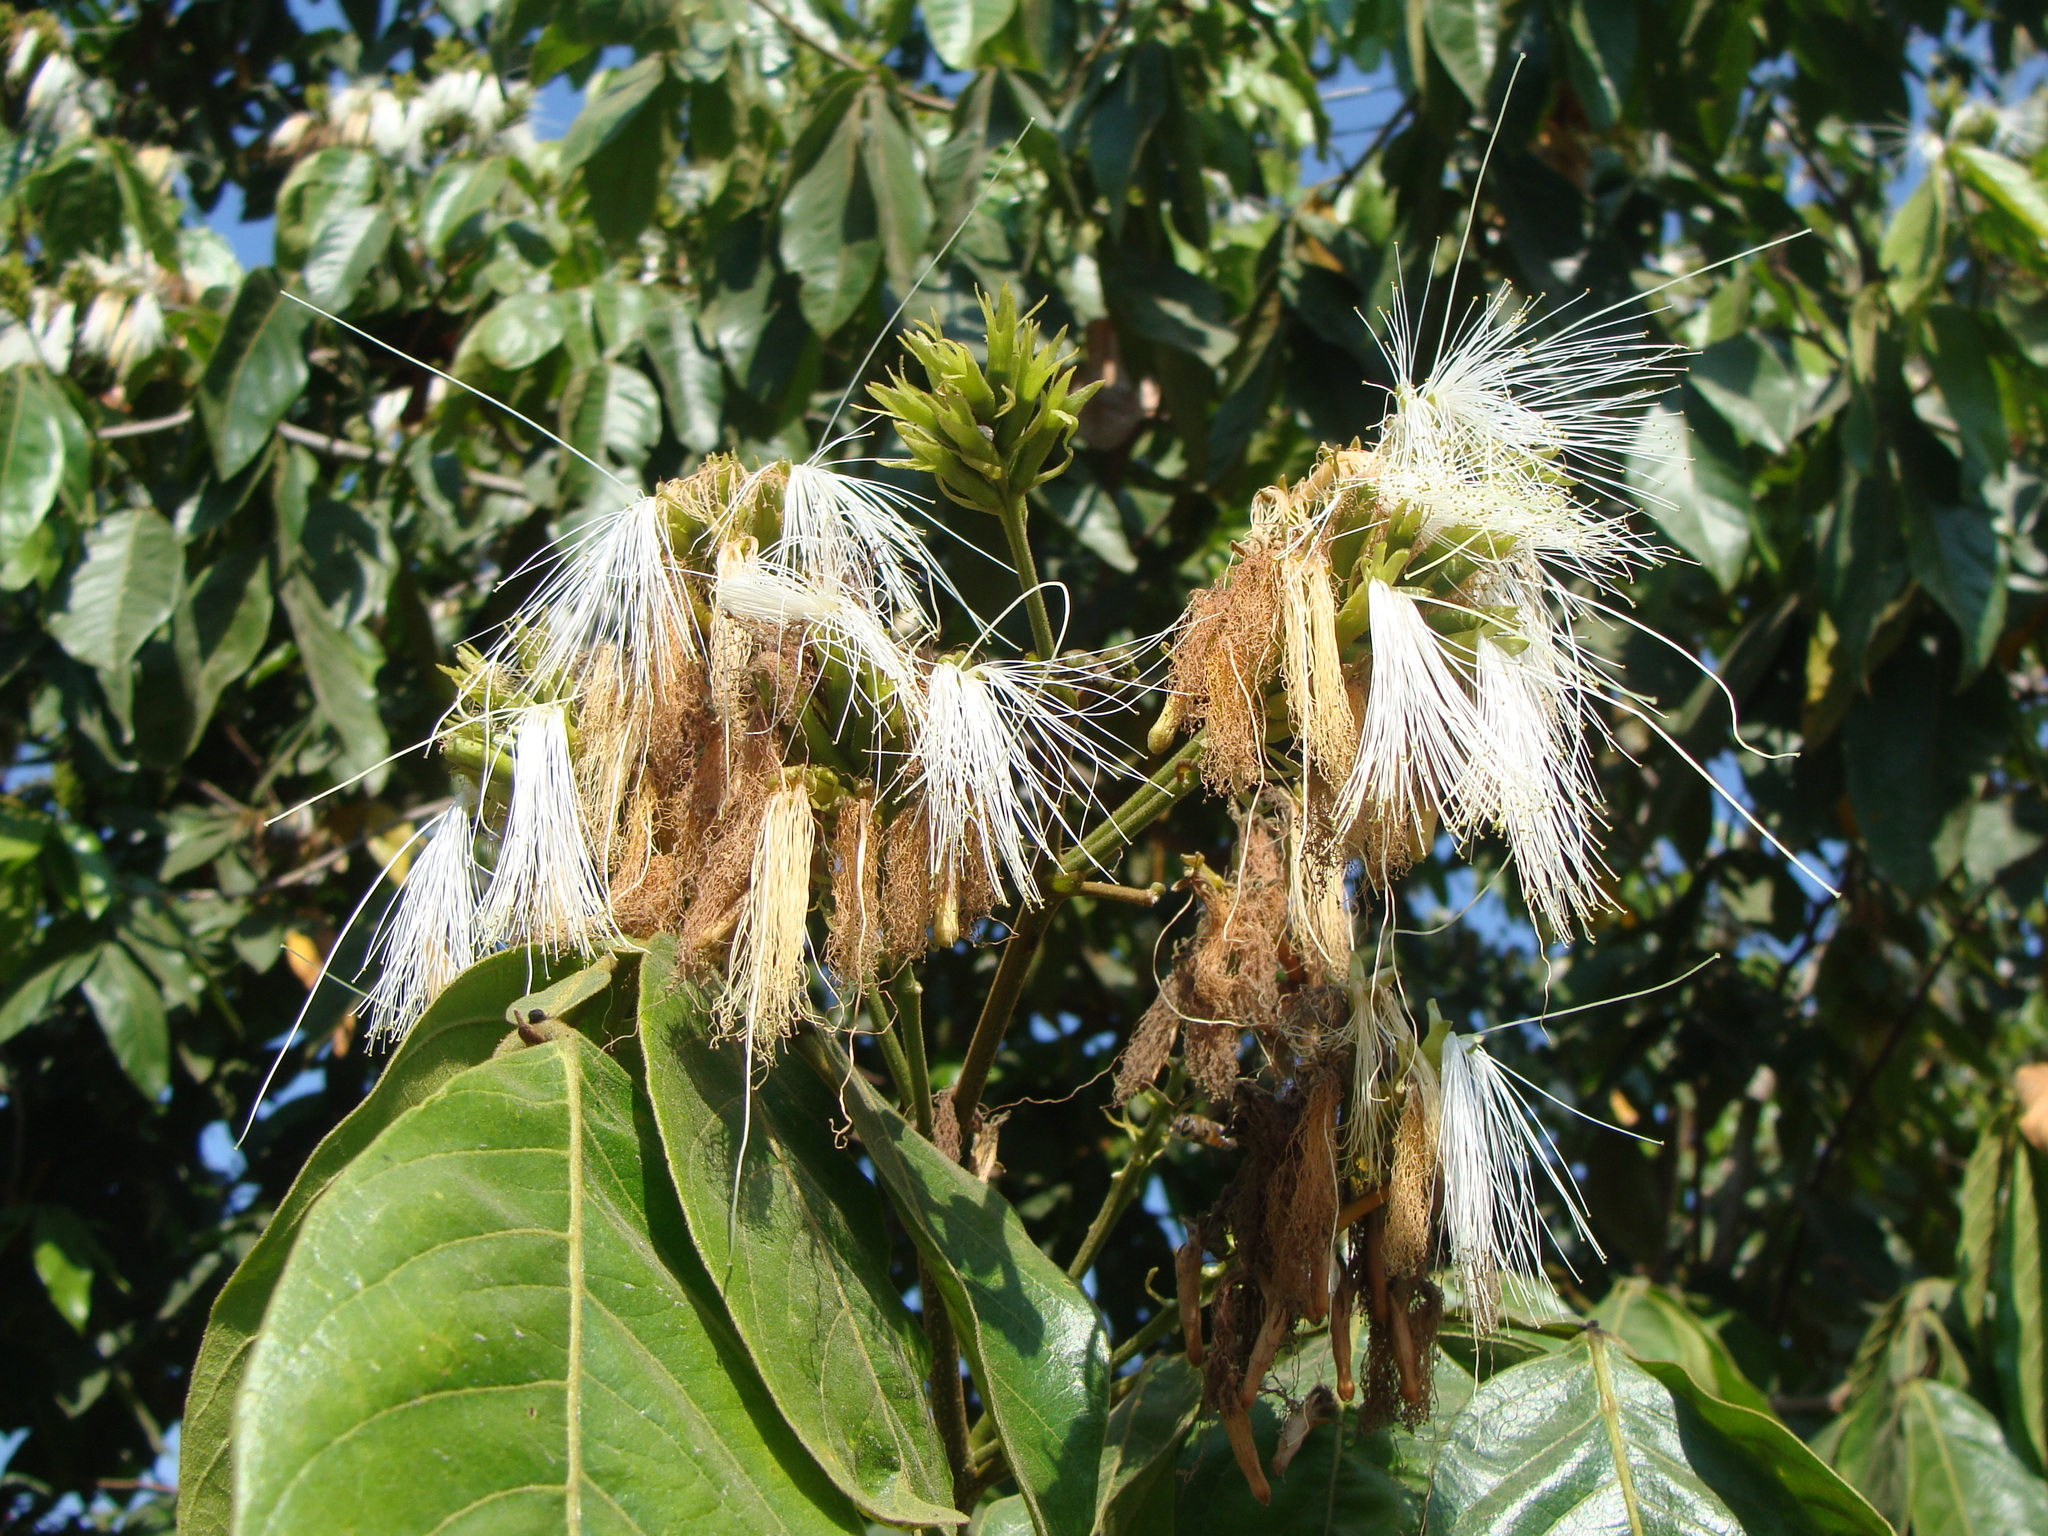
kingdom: Plantae
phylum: Tracheophyta
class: Magnoliopsida
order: Fabales
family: Fabaceae
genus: Inga
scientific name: Inga vera
